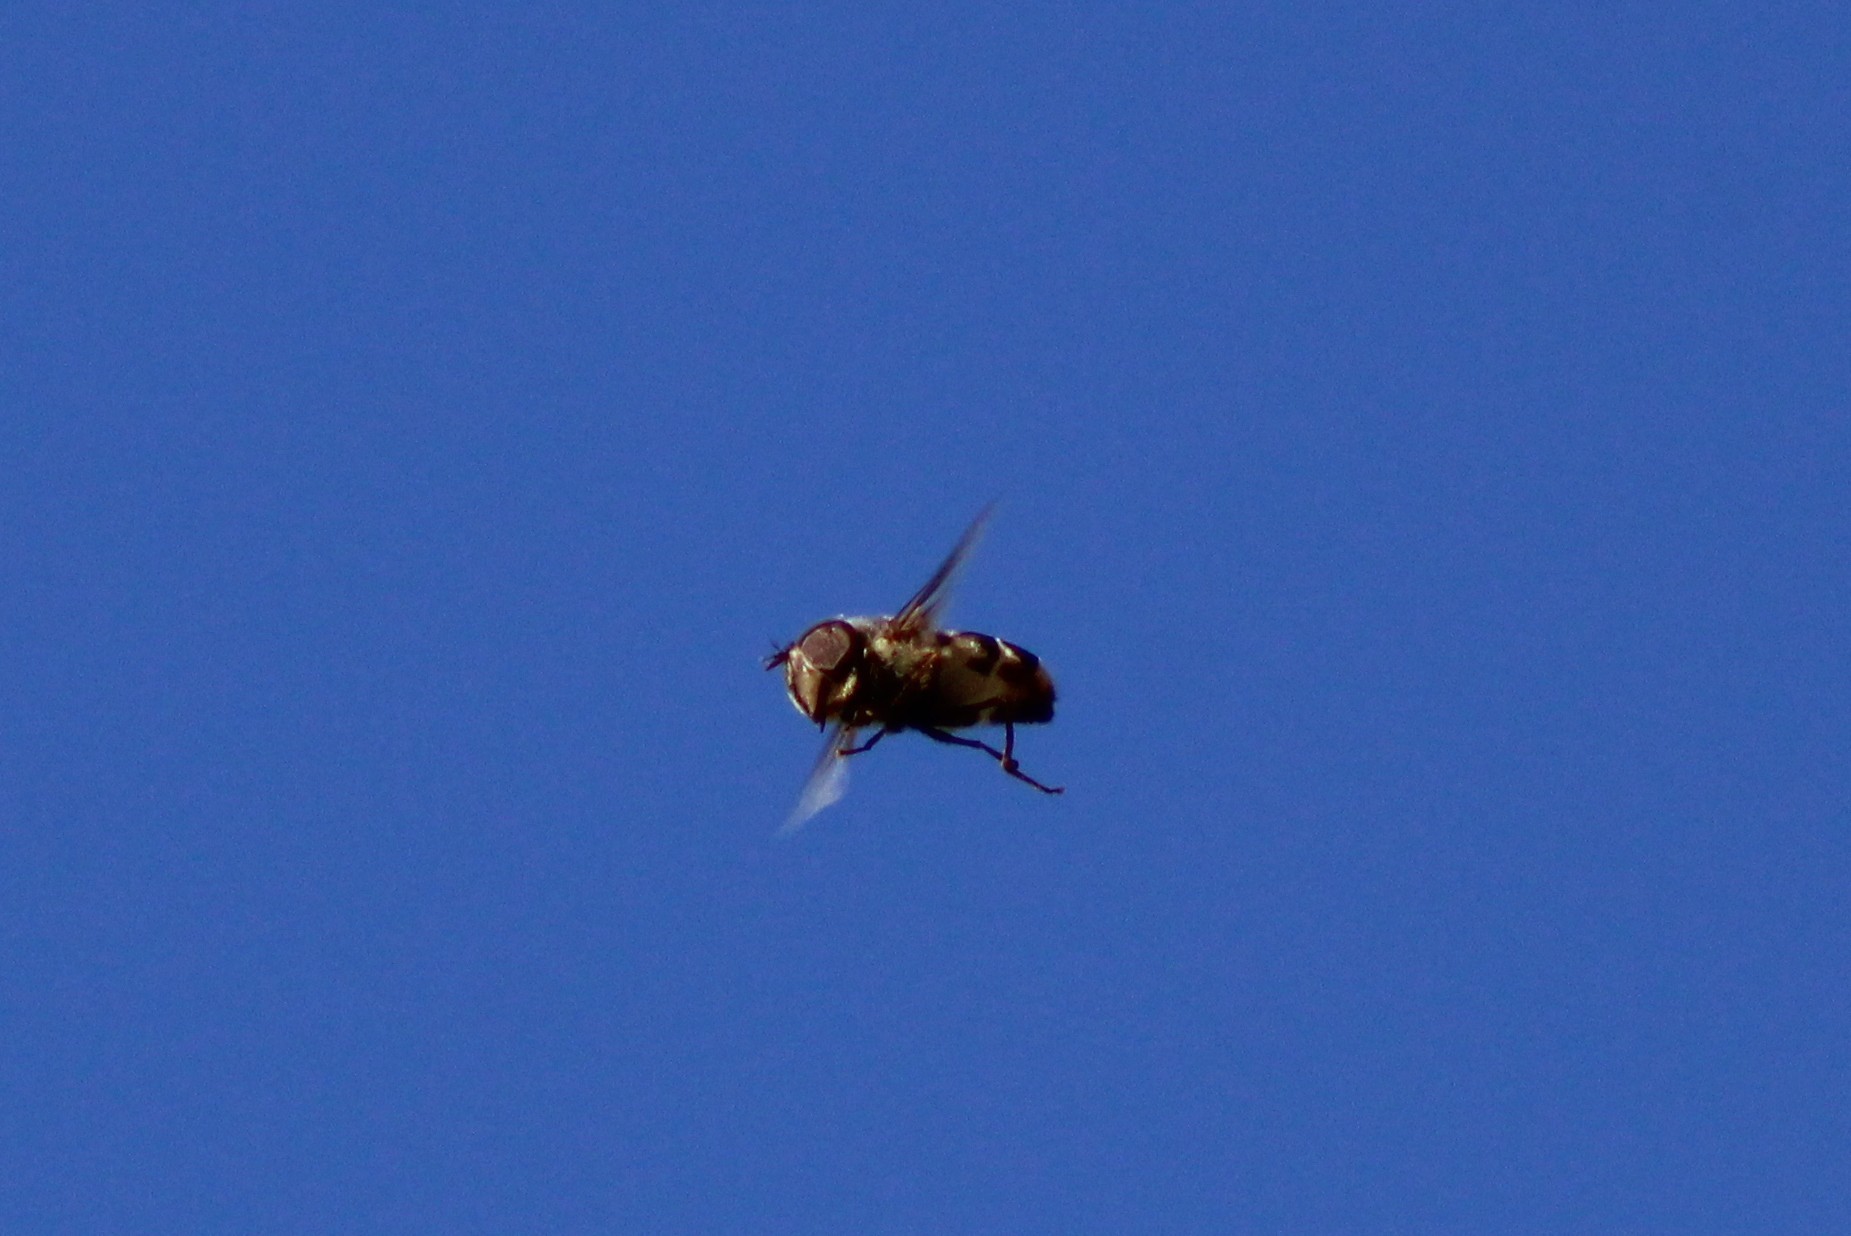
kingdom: Animalia
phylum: Arthropoda
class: Insecta
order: Diptera
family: Syrphidae
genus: Copestylum
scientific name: Copestylum
